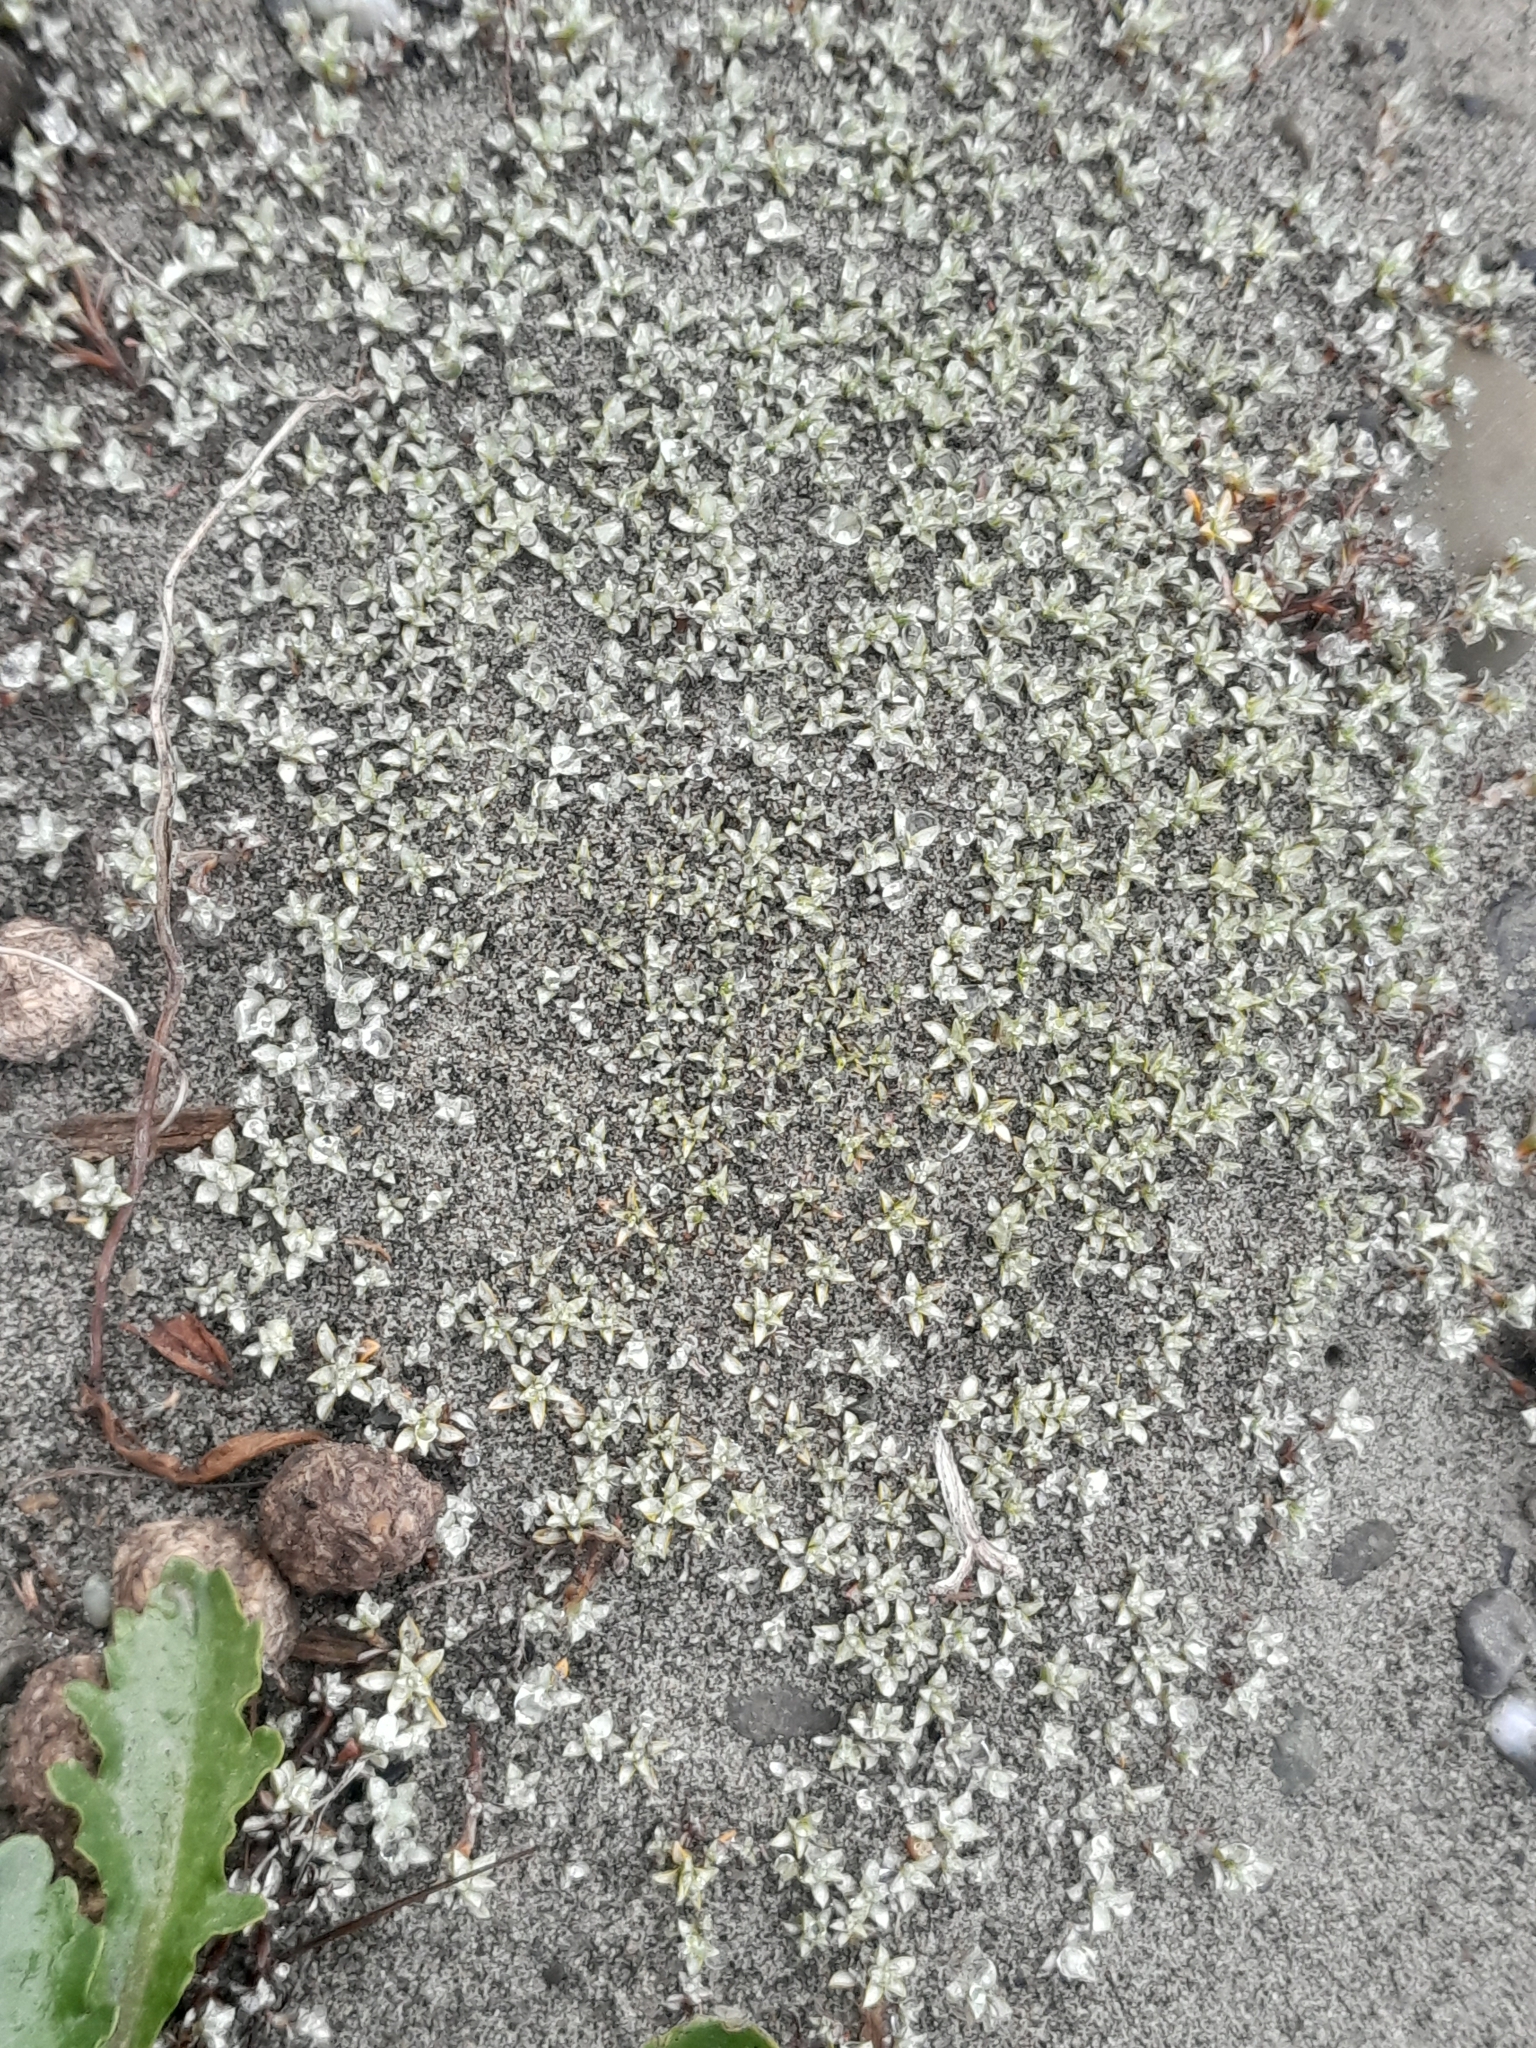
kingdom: Plantae
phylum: Tracheophyta
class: Magnoliopsida
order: Asterales
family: Asteraceae
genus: Raoulia
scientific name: Raoulia tenuicaulis
